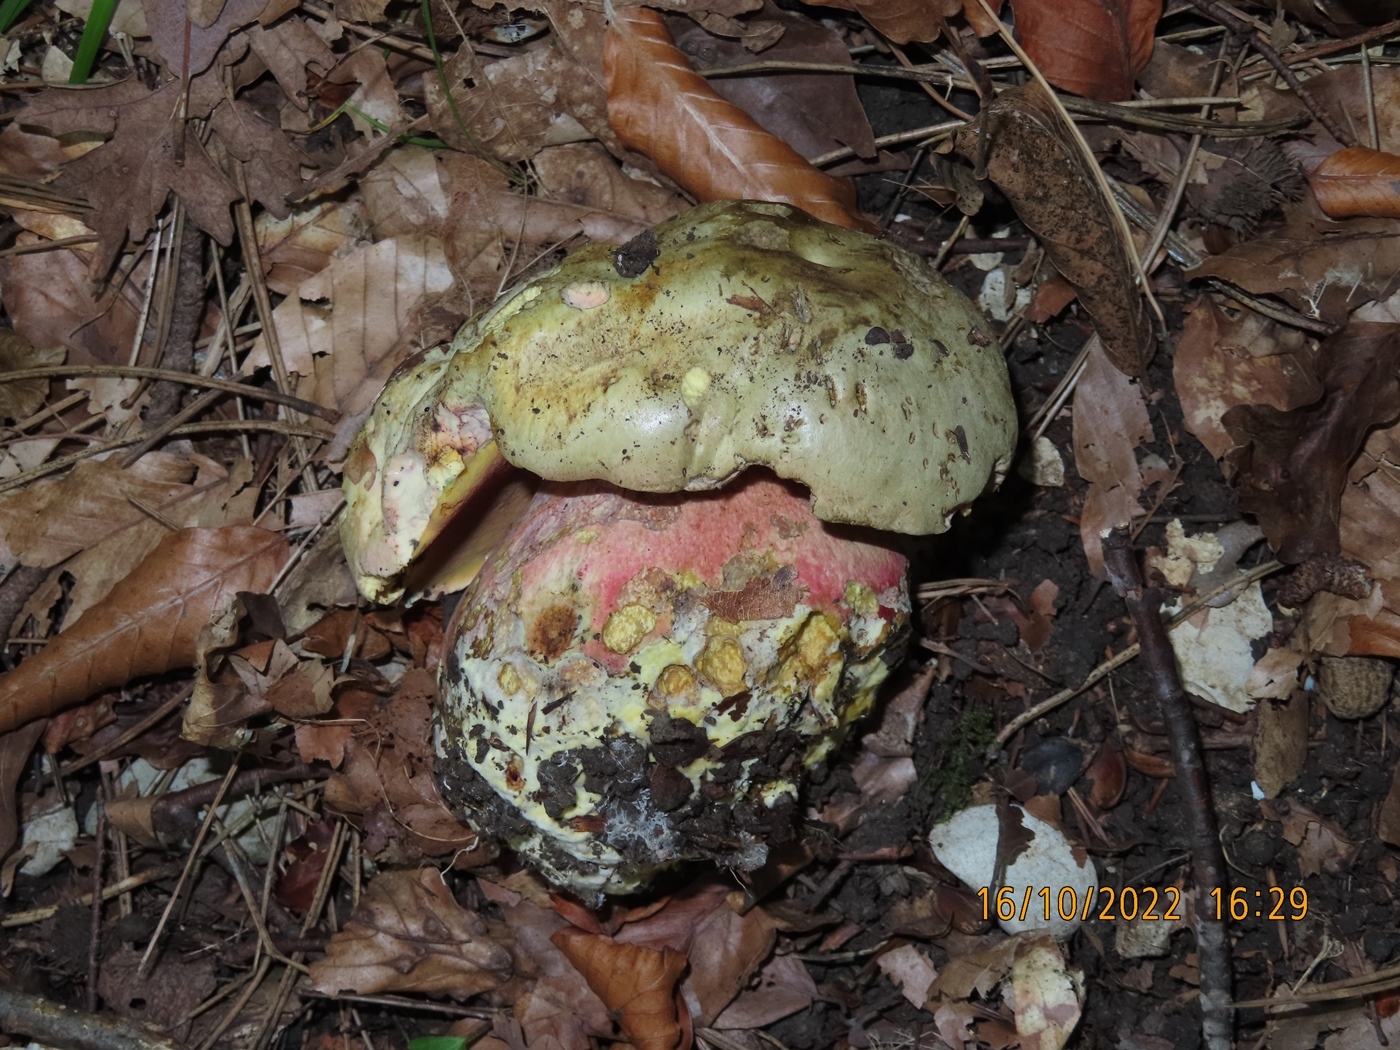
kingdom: Fungi
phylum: Basidiomycota
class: Agaricomycetes
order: Boletales
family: Boletaceae
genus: Rubroboletus
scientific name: Rubroboletus satanas
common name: Devil's bolete
